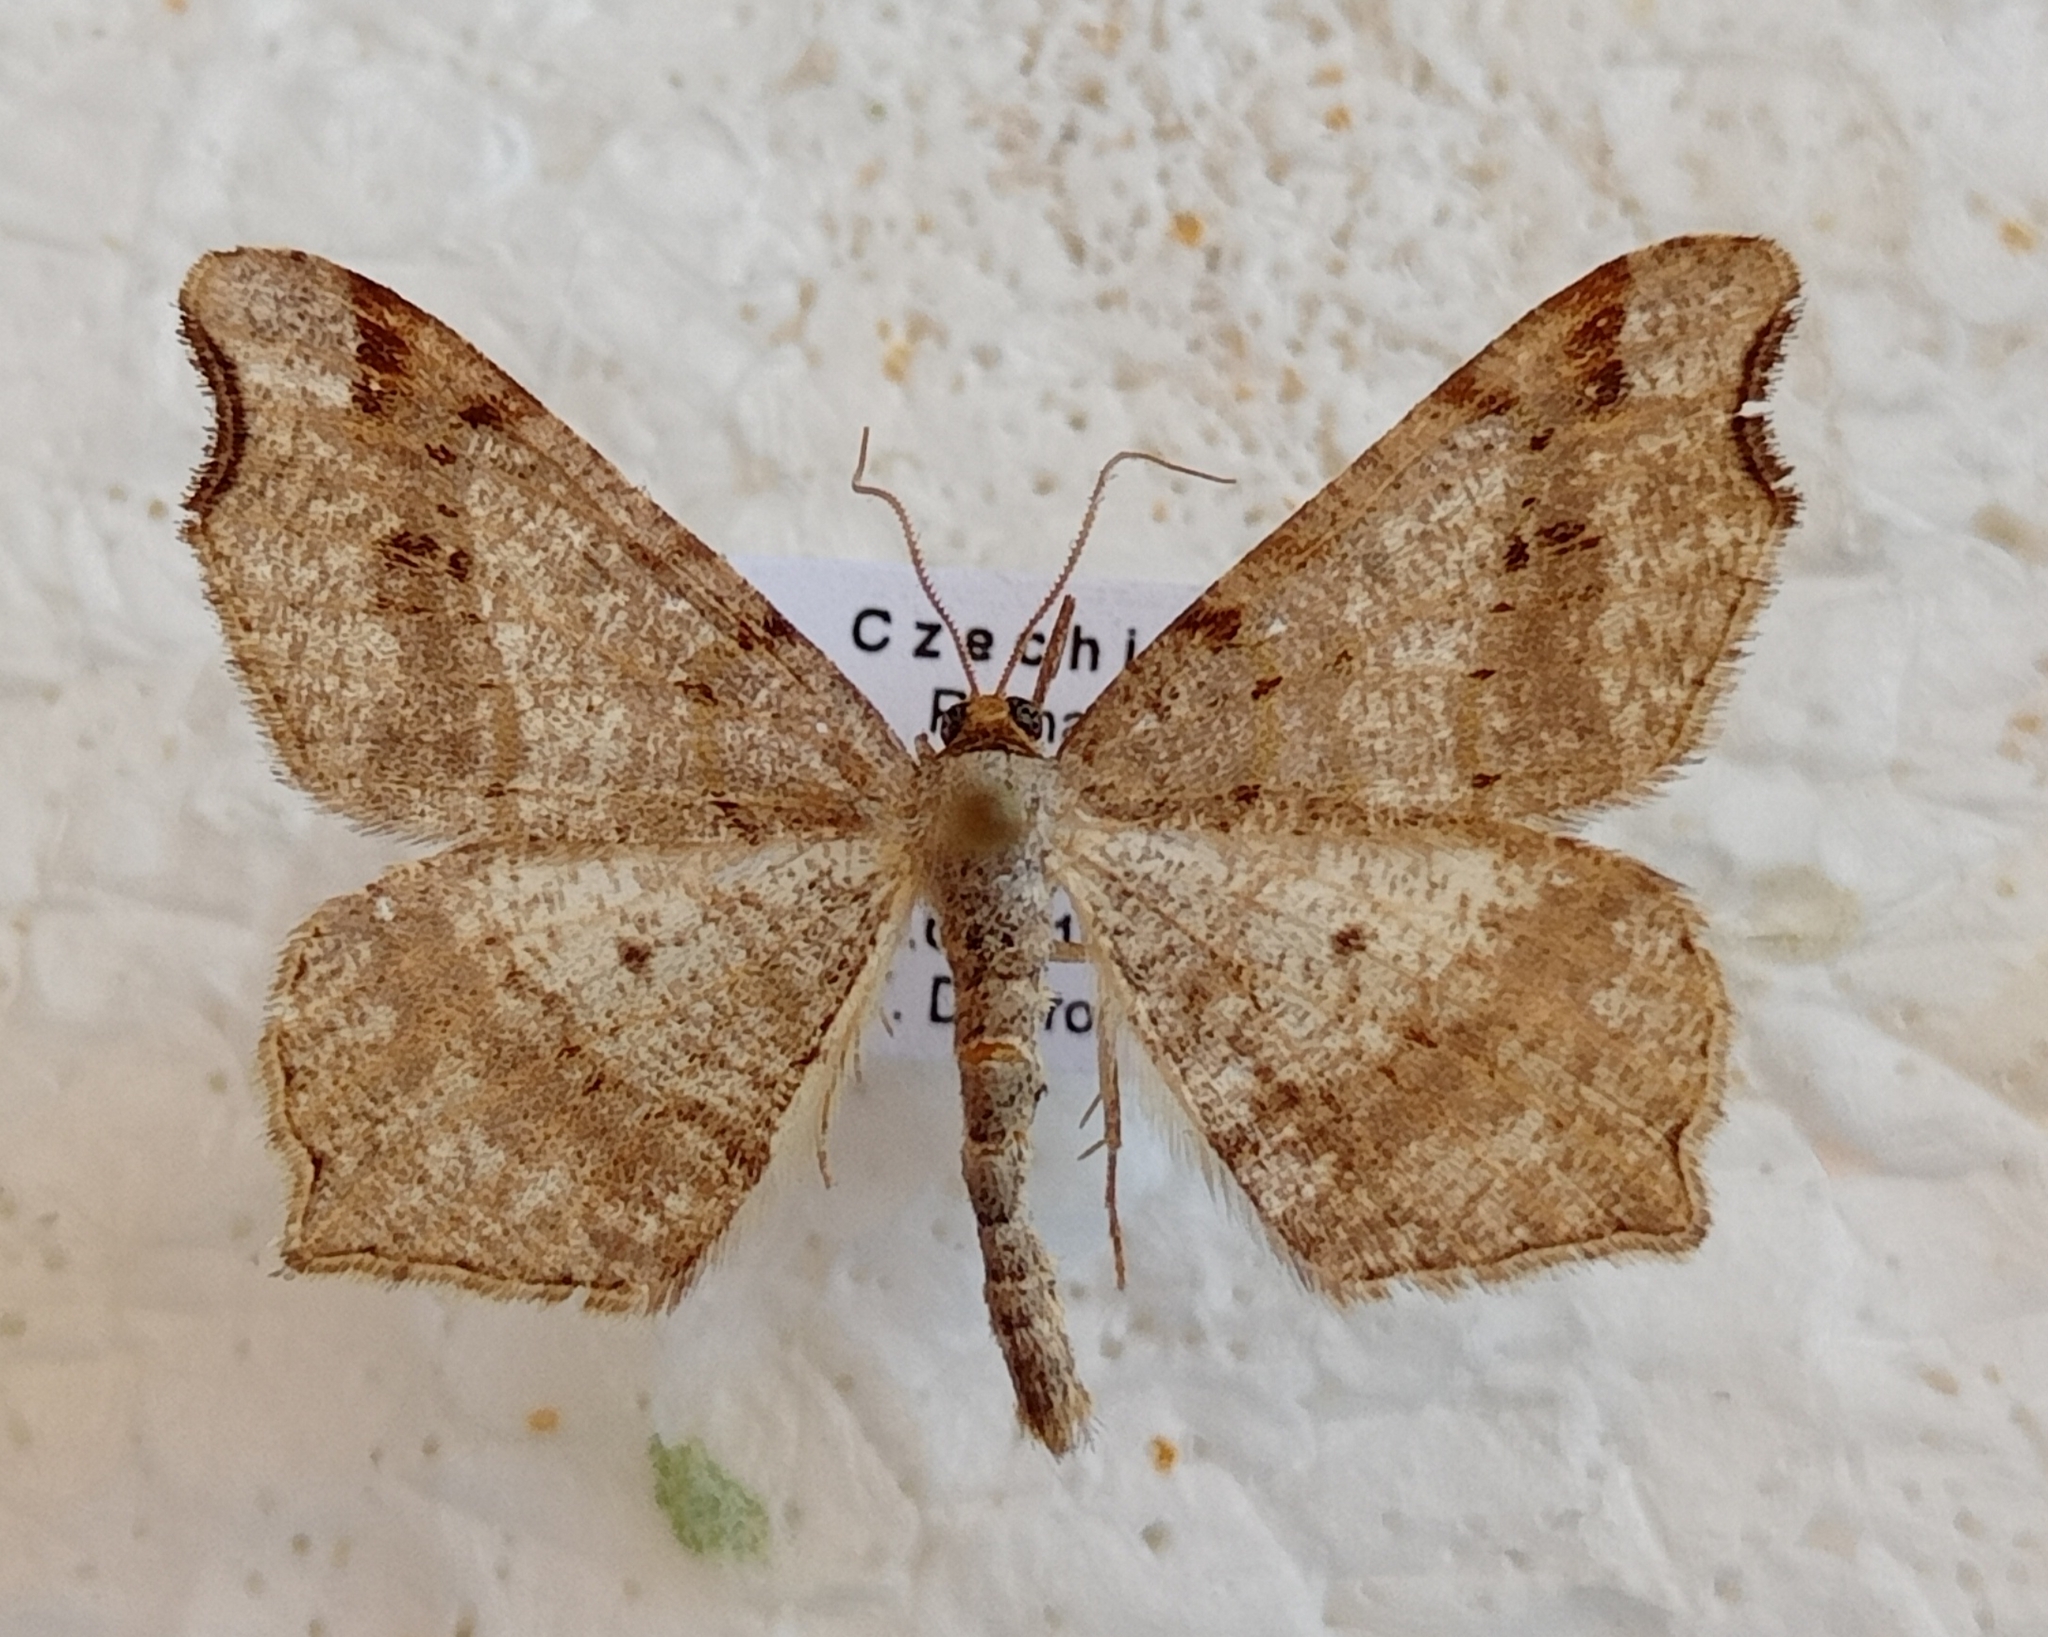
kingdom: Animalia
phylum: Arthropoda
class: Insecta
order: Lepidoptera
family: Geometridae
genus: Macaria
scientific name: Macaria alternata
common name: Sharp-angled peacock
